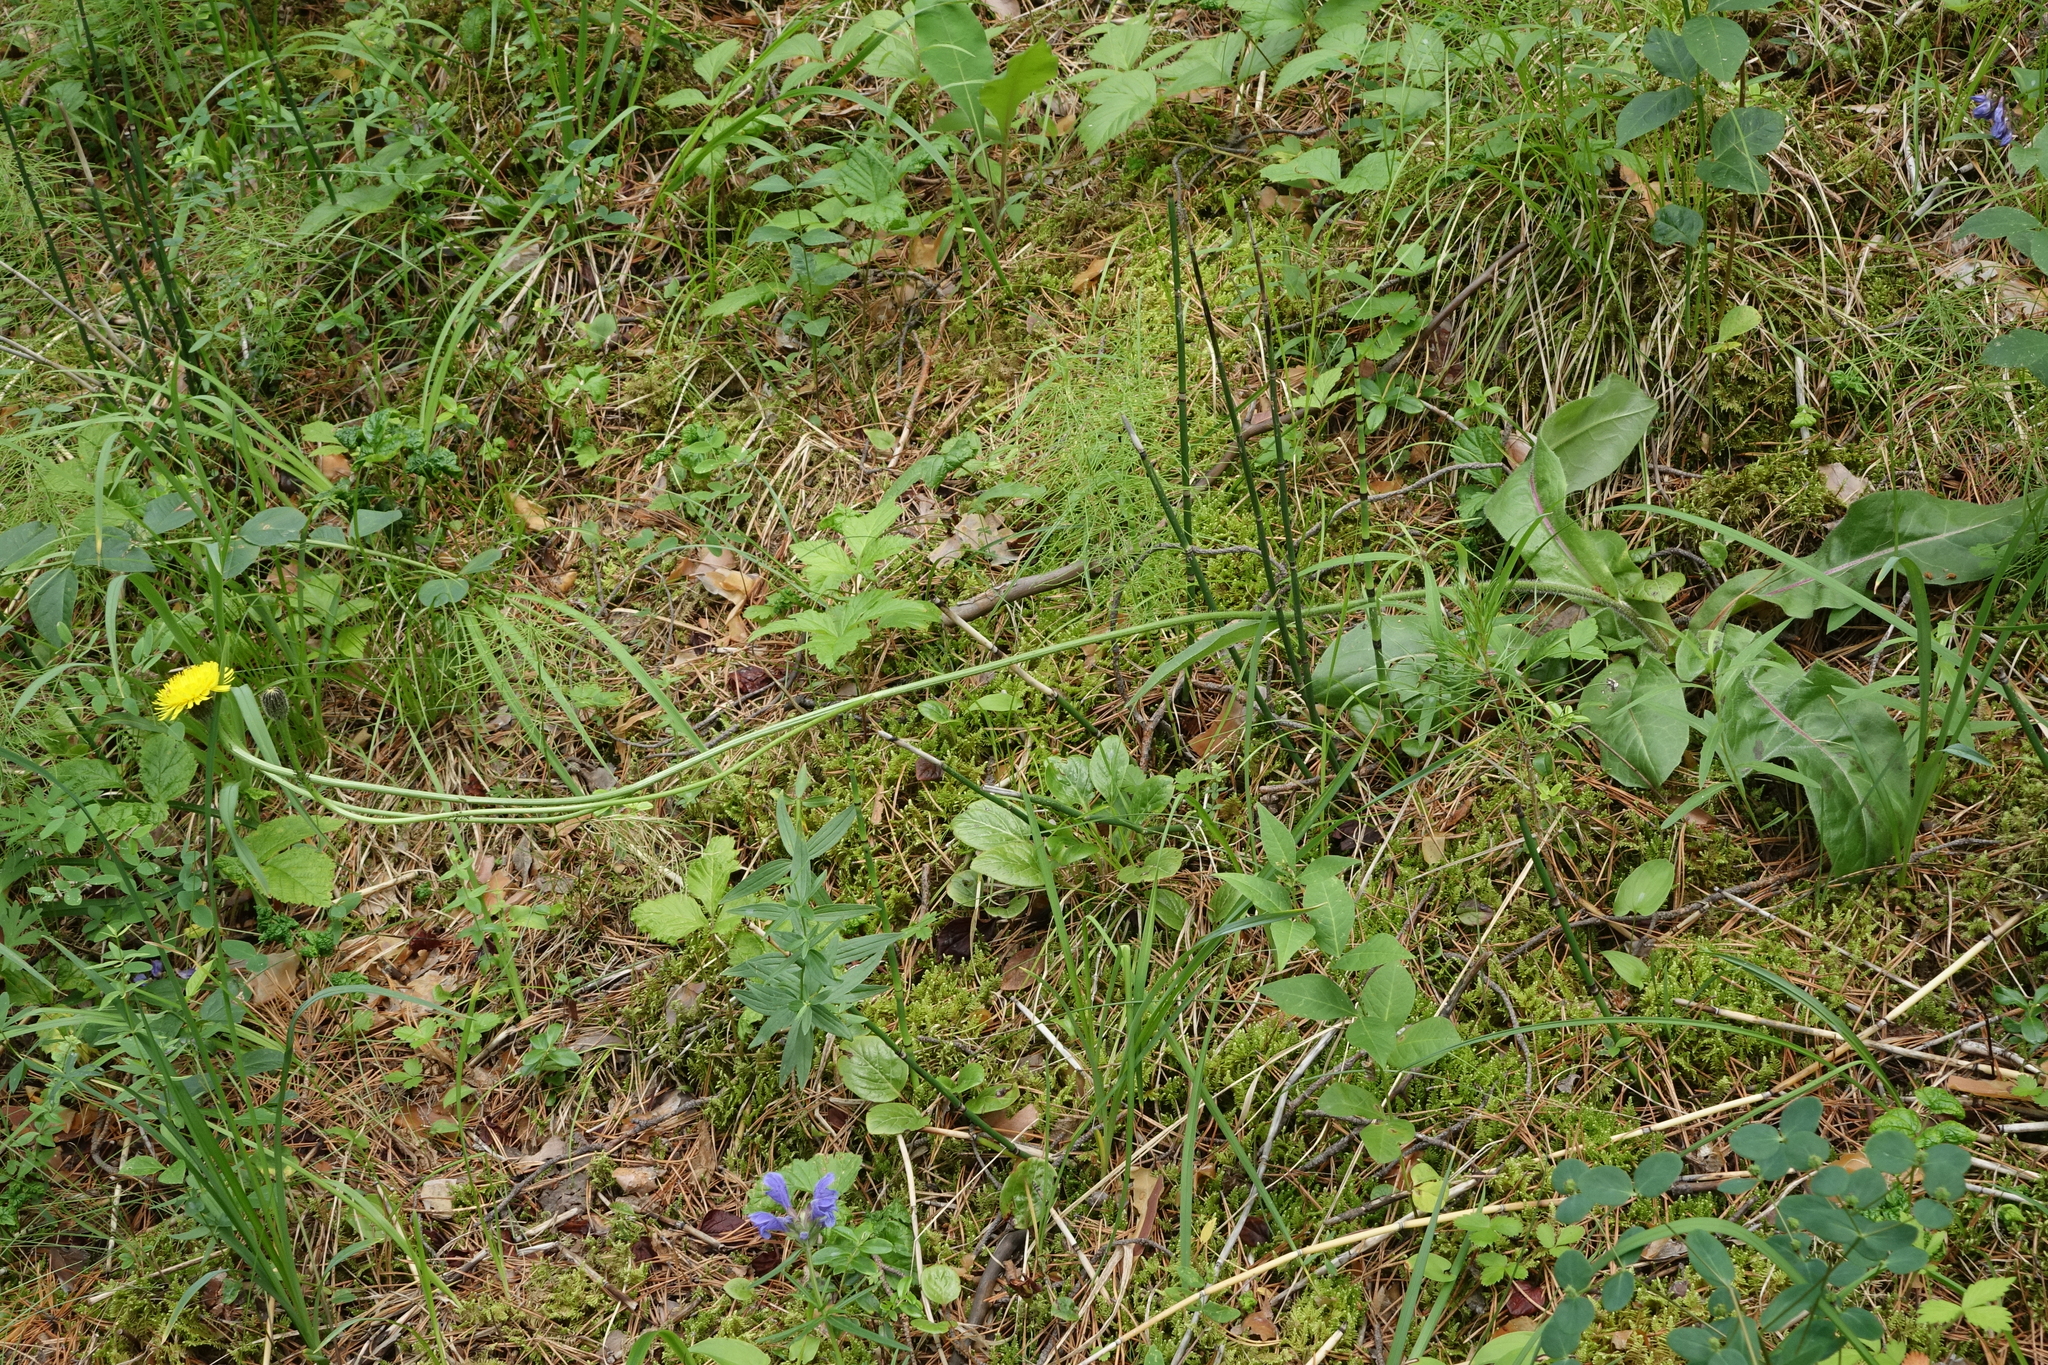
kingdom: Plantae
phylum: Tracheophyta
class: Magnoliopsida
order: Asterales
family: Asteraceae
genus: Trommsdorffia
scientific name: Trommsdorffia maculata
